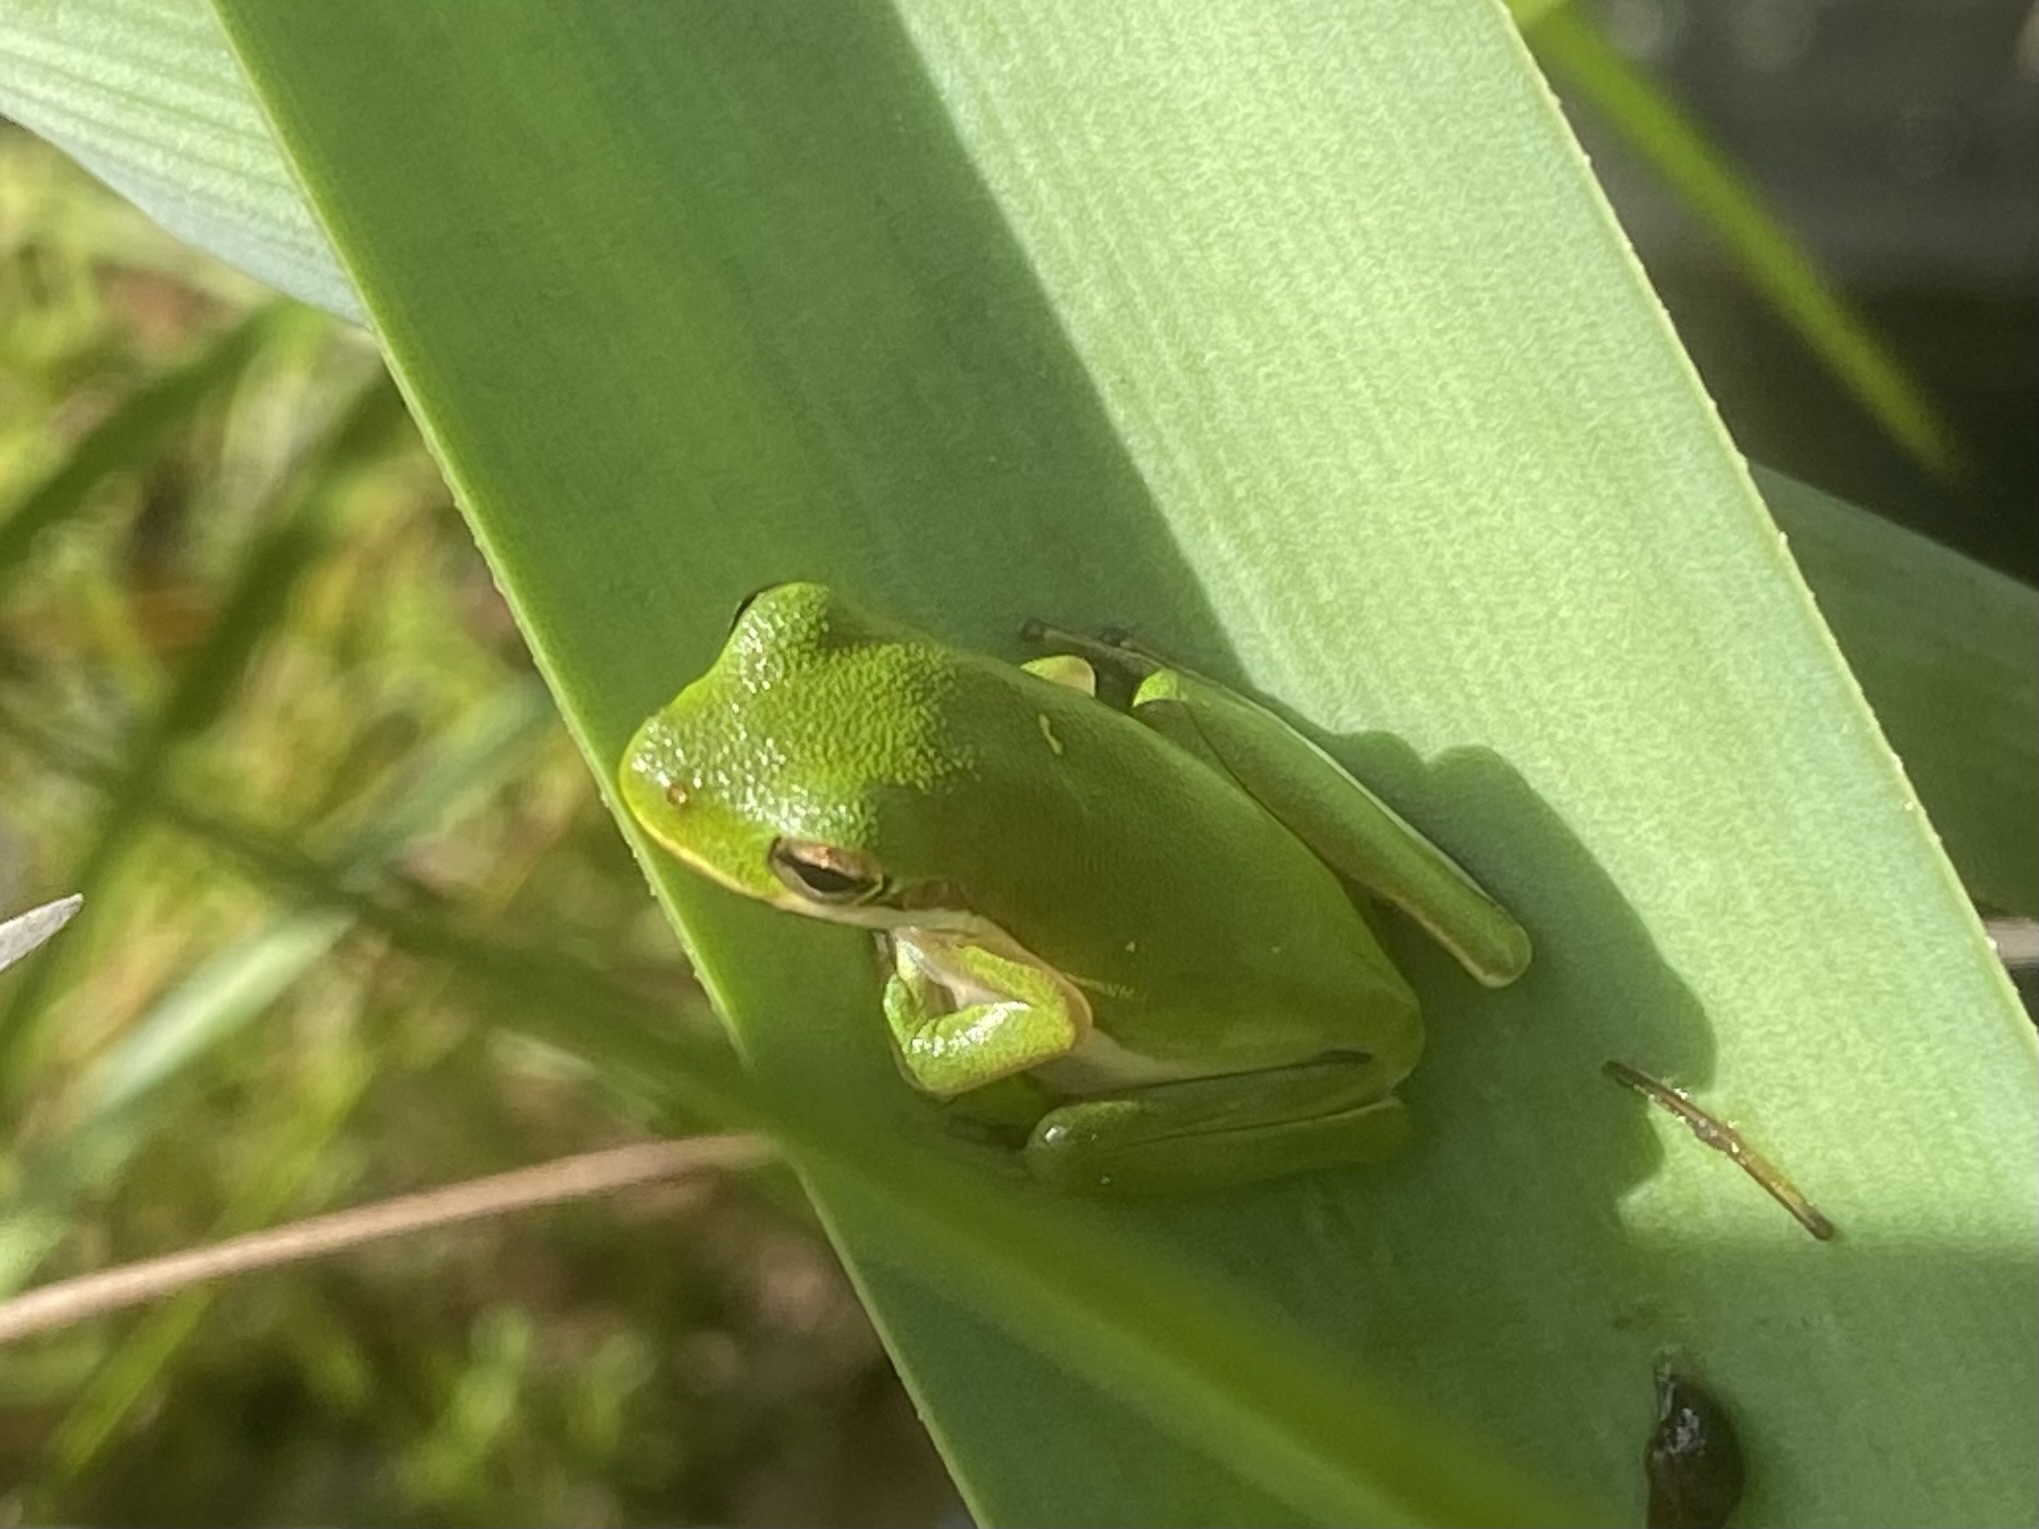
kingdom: Animalia
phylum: Chordata
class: Amphibia
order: Anura
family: Hylidae
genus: Dryophytes
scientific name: Dryophytes cinereus
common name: Green treefrog
